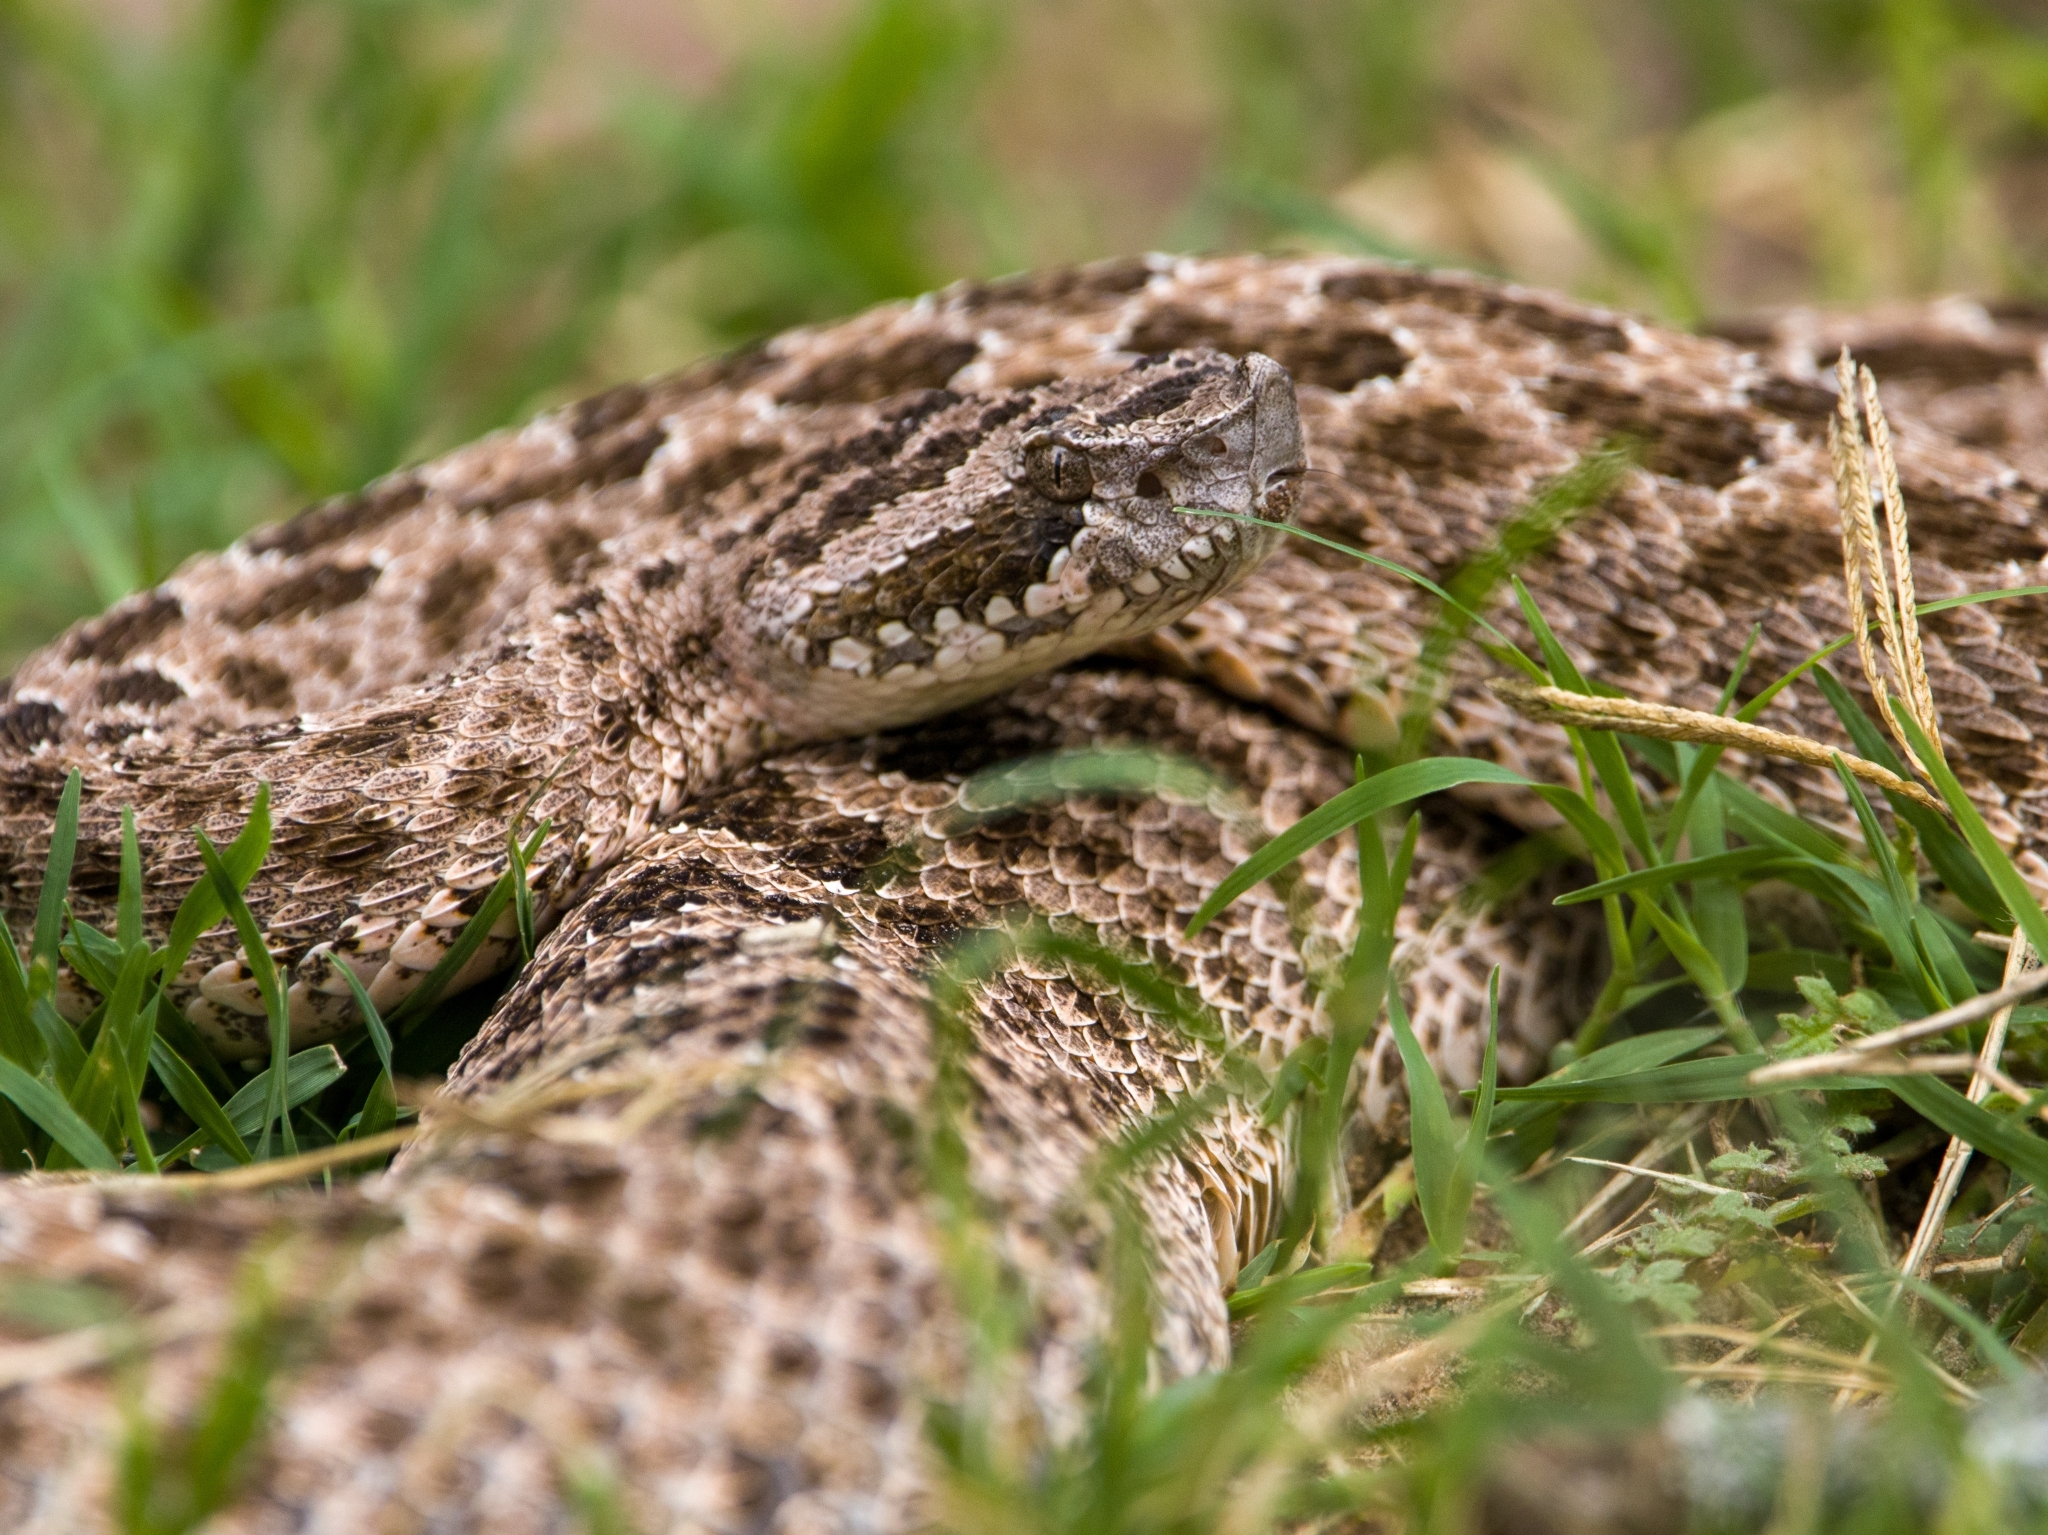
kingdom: Animalia
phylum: Chordata
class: Squamata
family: Viperidae
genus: Bothrops
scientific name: Bothrops ammodytoides
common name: Yararanata
